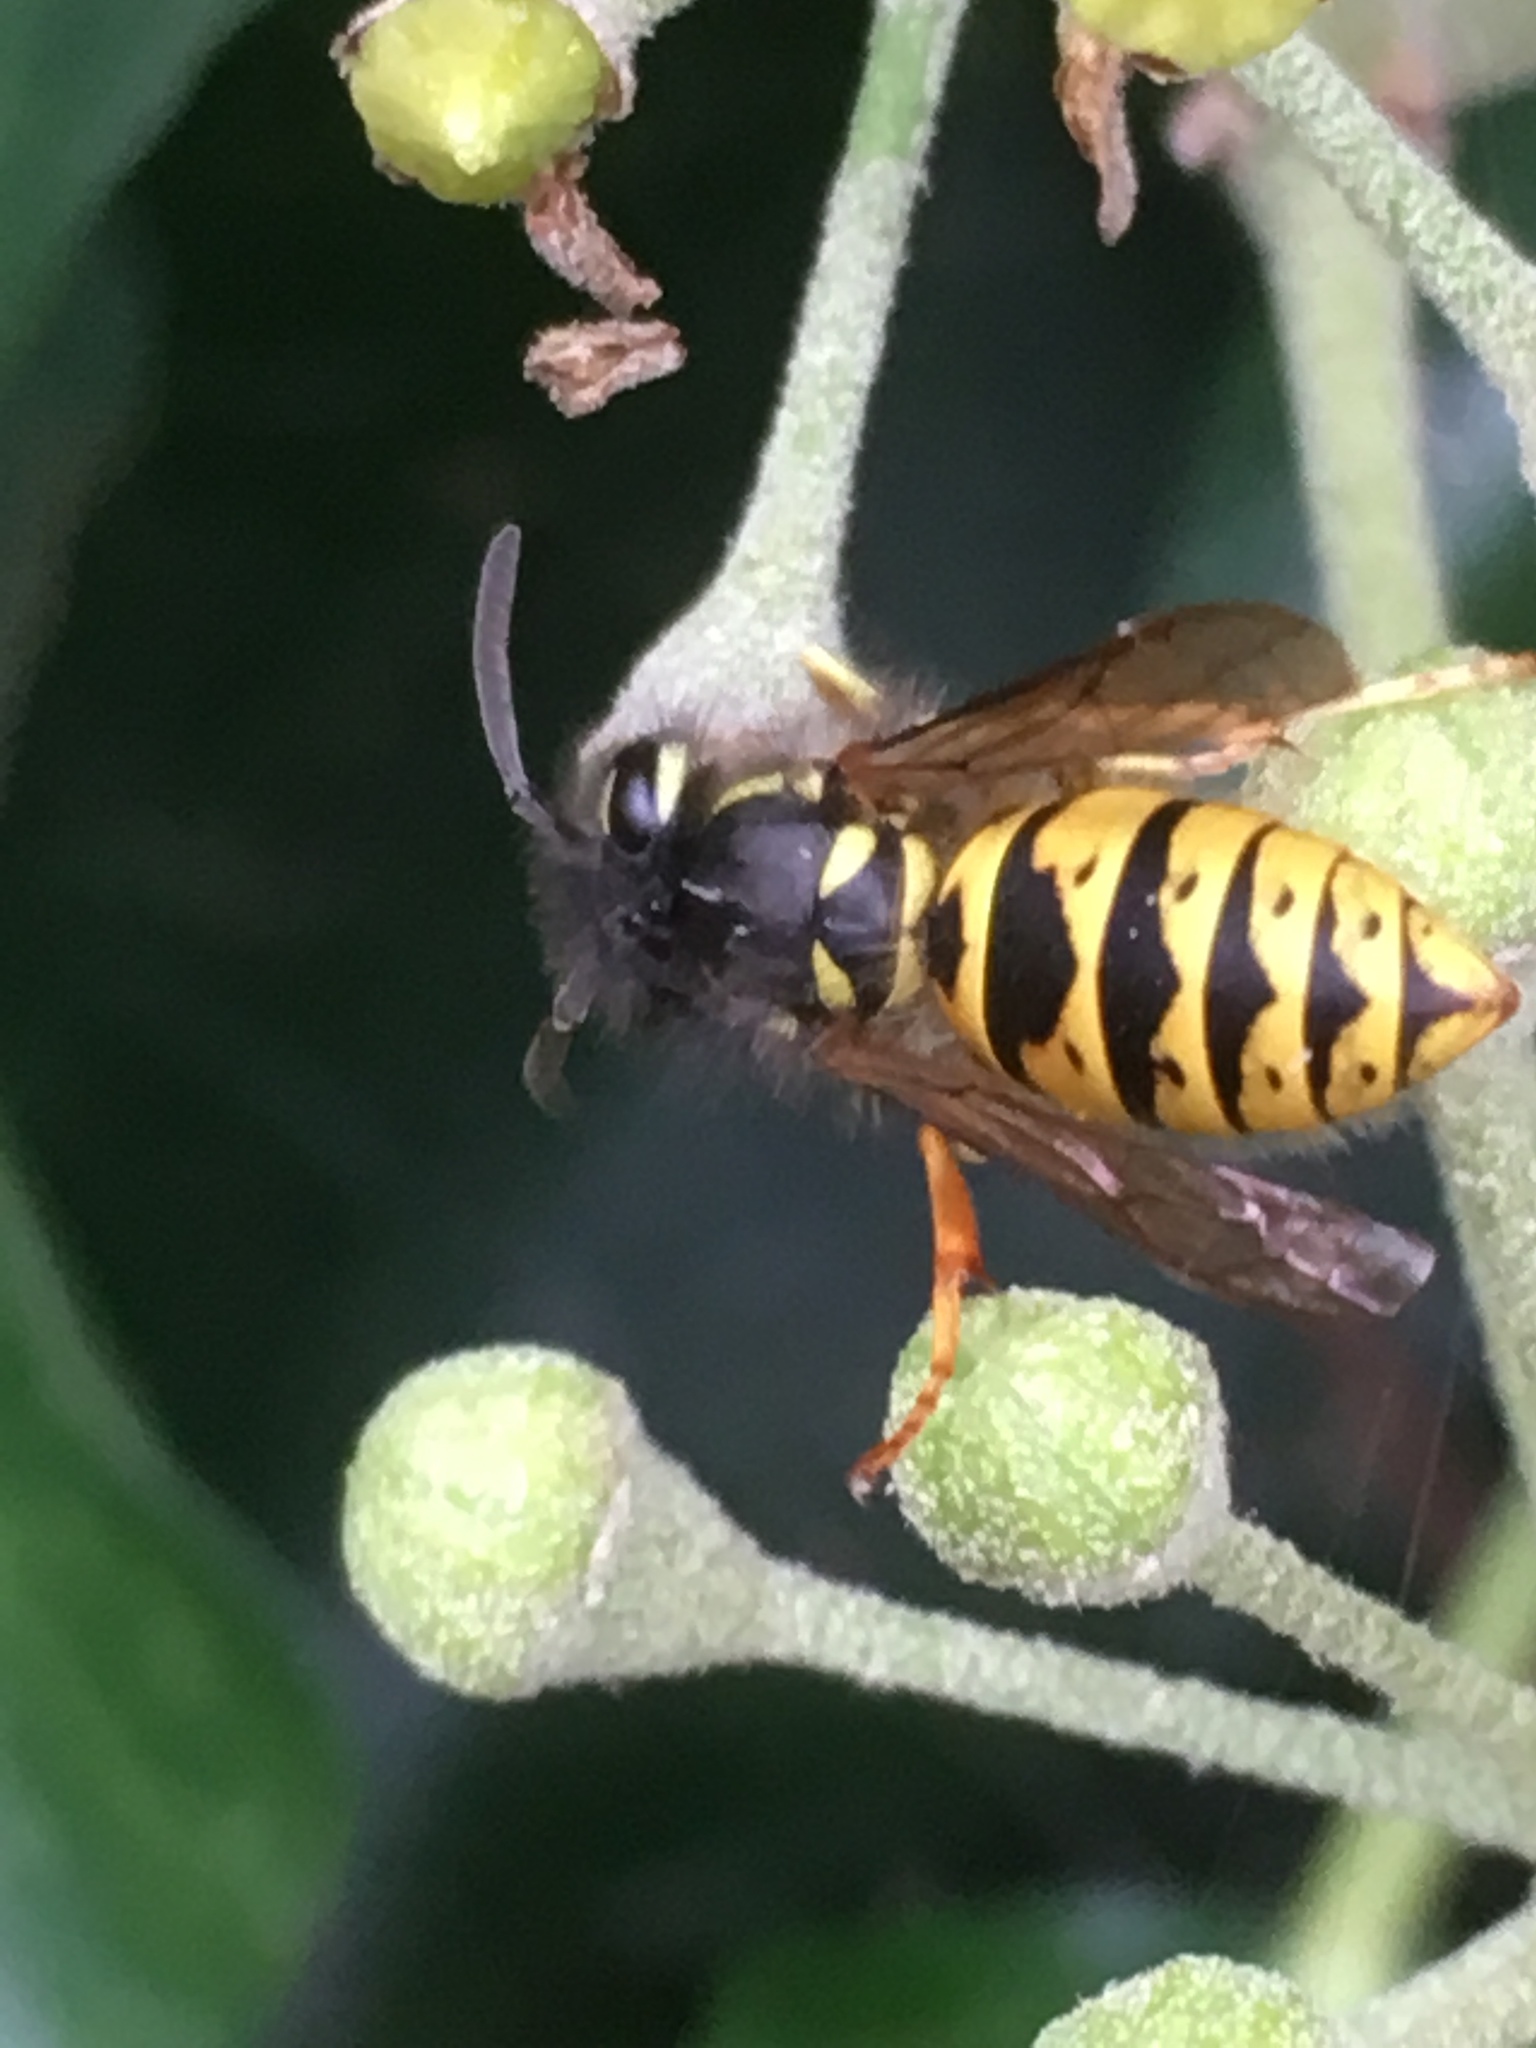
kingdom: Animalia
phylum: Arthropoda
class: Insecta
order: Hymenoptera
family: Vespidae
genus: Vespula
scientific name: Vespula vulgaris
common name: Common wasp
